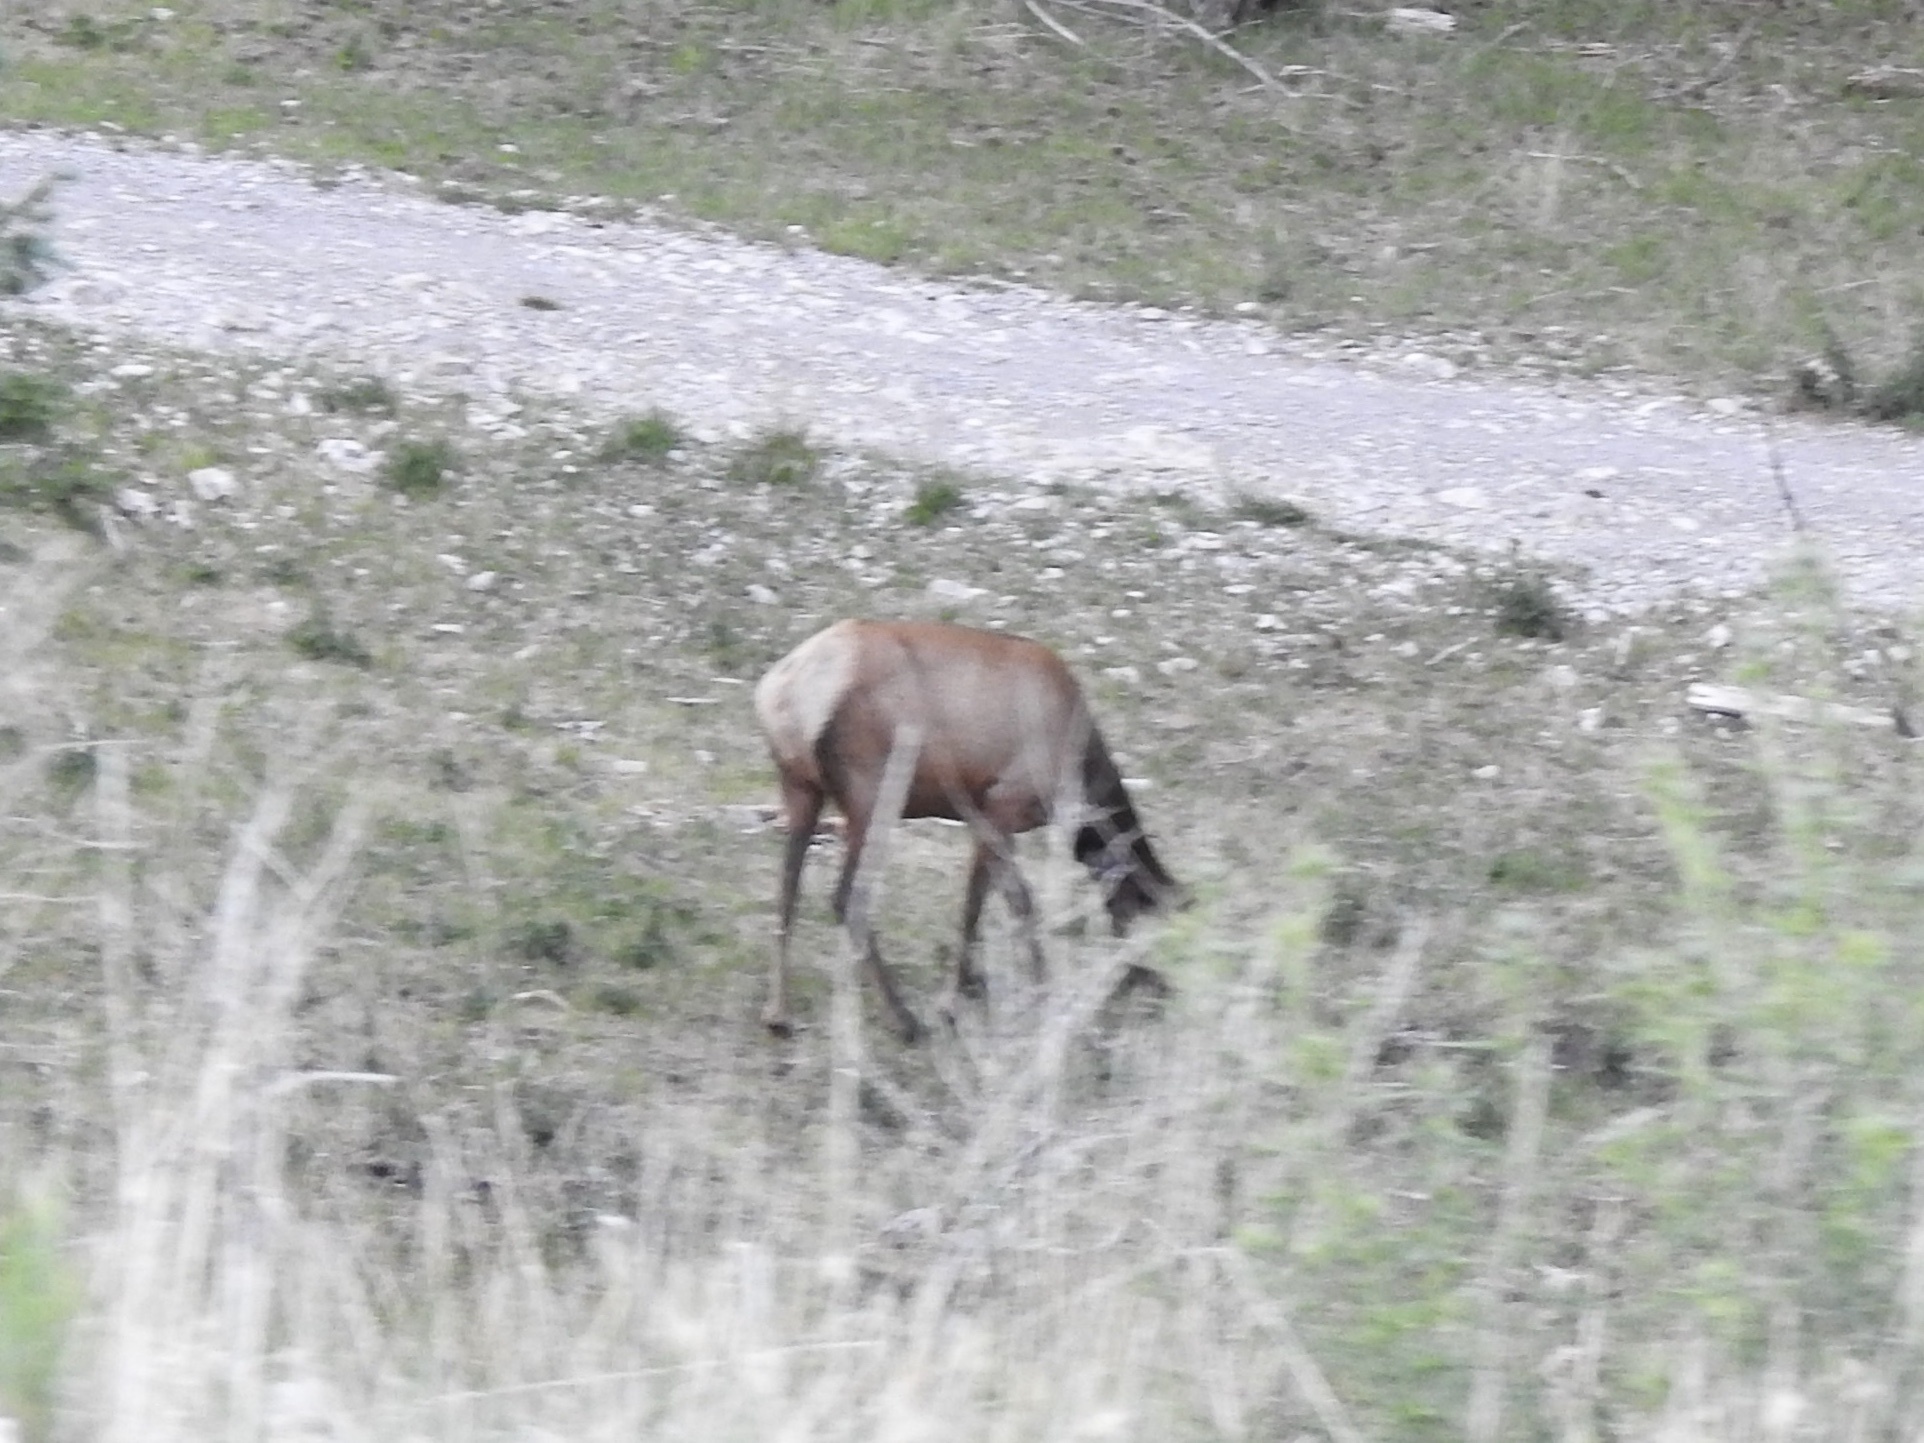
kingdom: Animalia
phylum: Chordata
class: Mammalia
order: Artiodactyla
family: Cervidae
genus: Cervus
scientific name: Cervus elaphus
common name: Red deer
